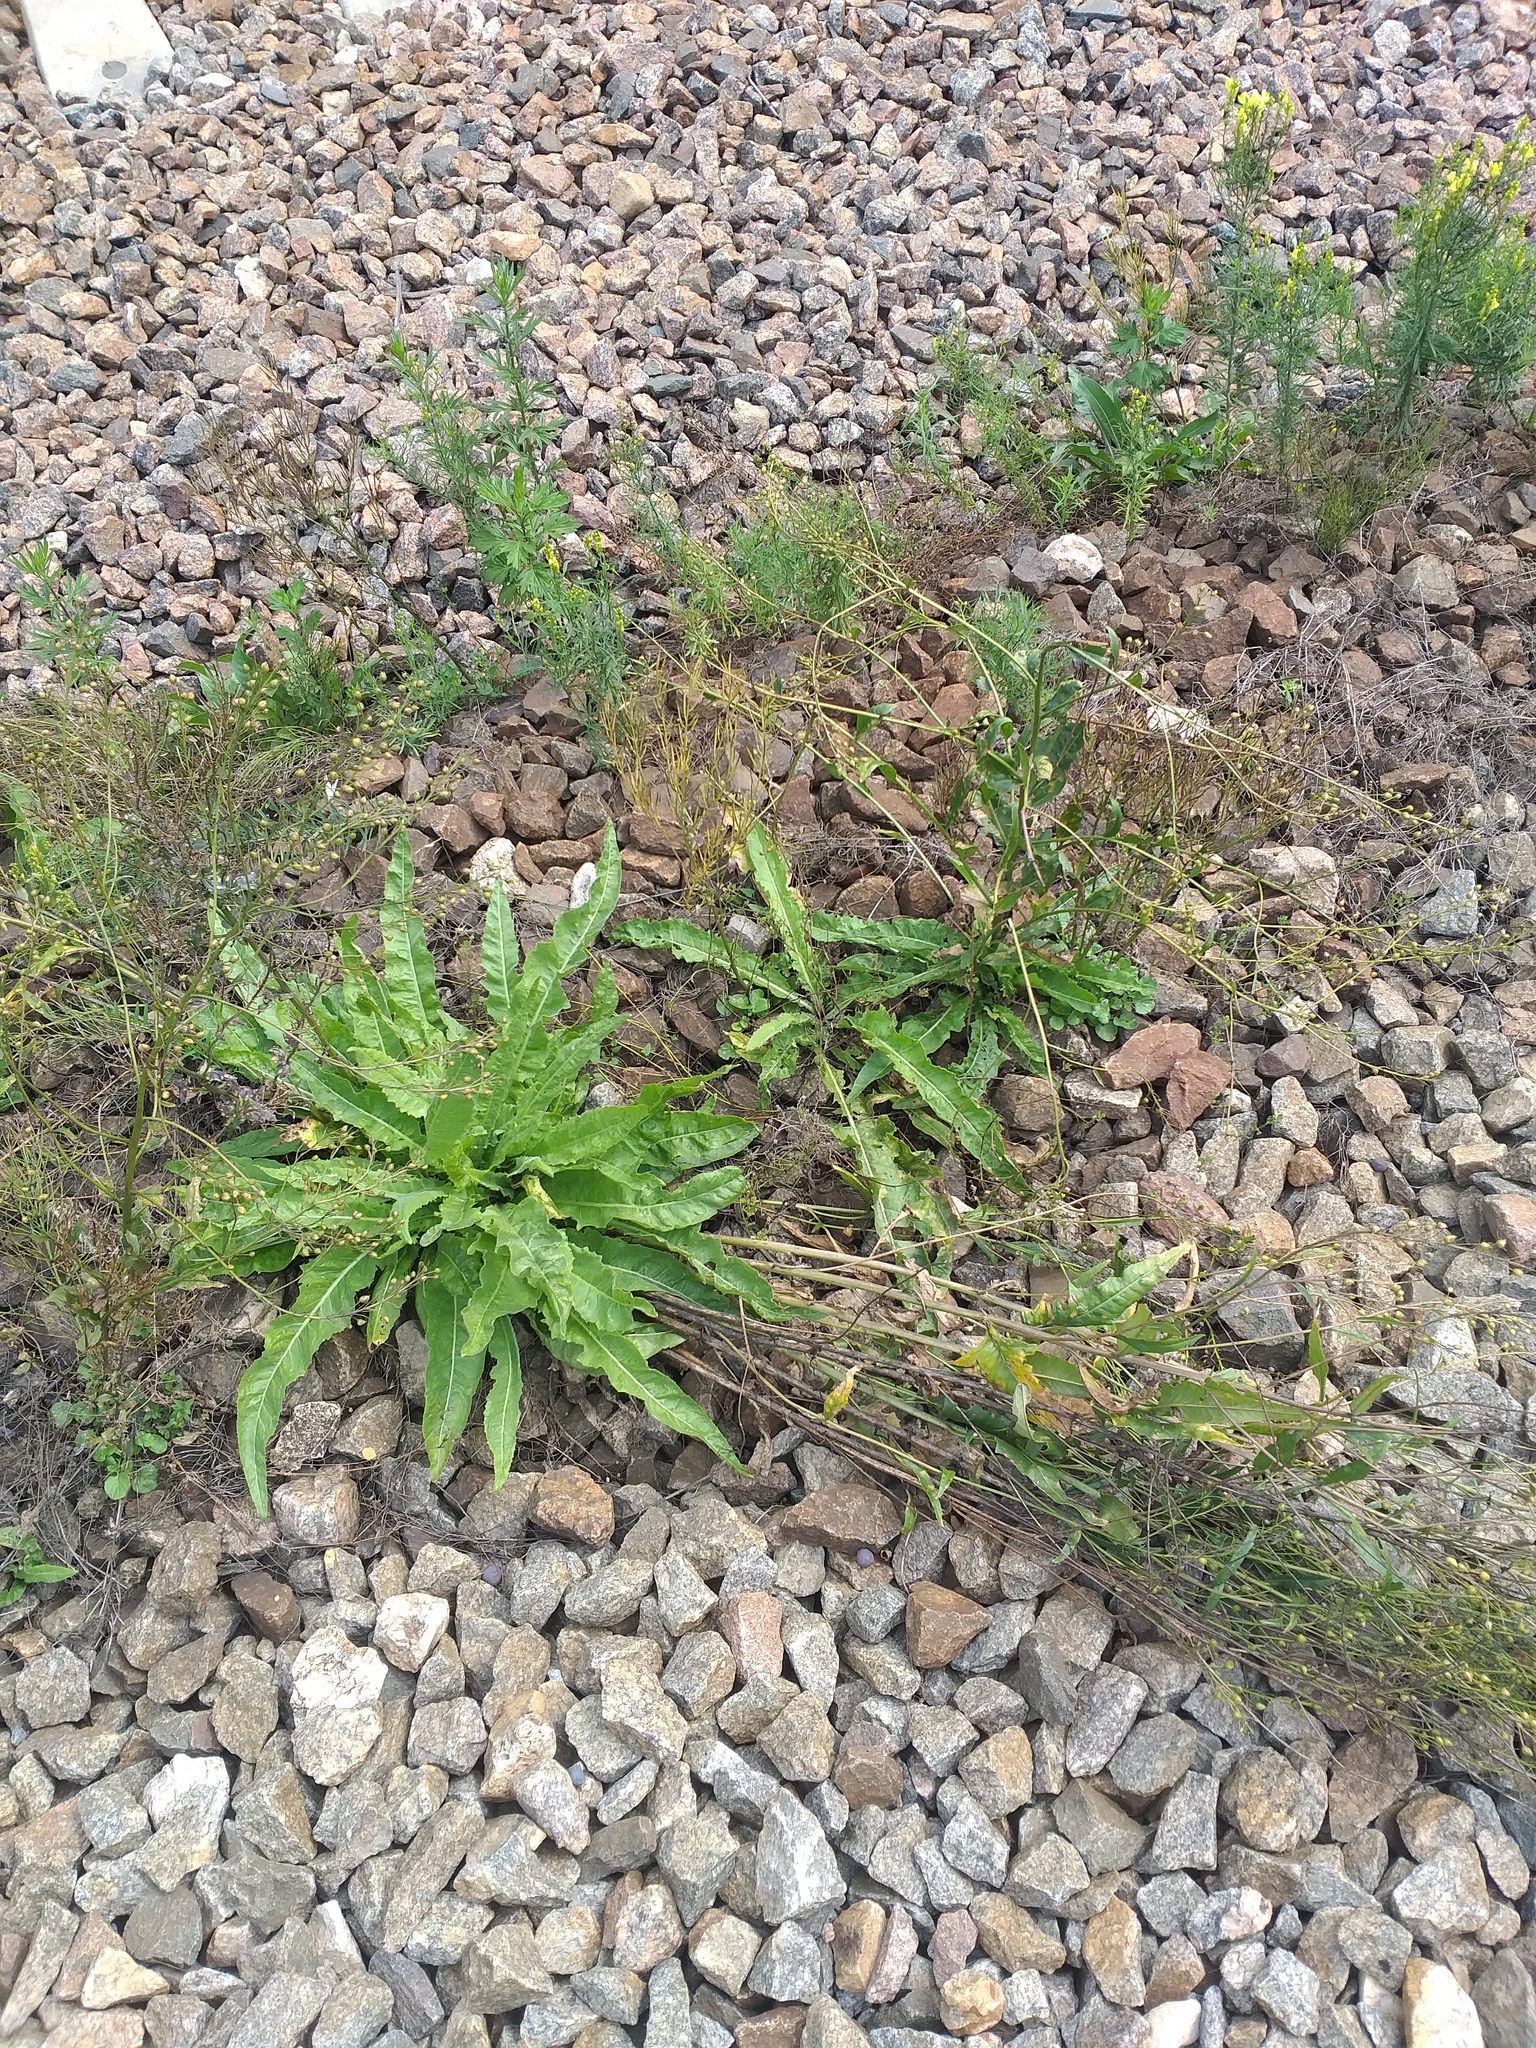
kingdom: Plantae
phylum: Tracheophyta
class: Magnoliopsida
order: Brassicales
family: Brassicaceae
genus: Bunias
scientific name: Bunias orientalis
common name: Warty-cabbage
